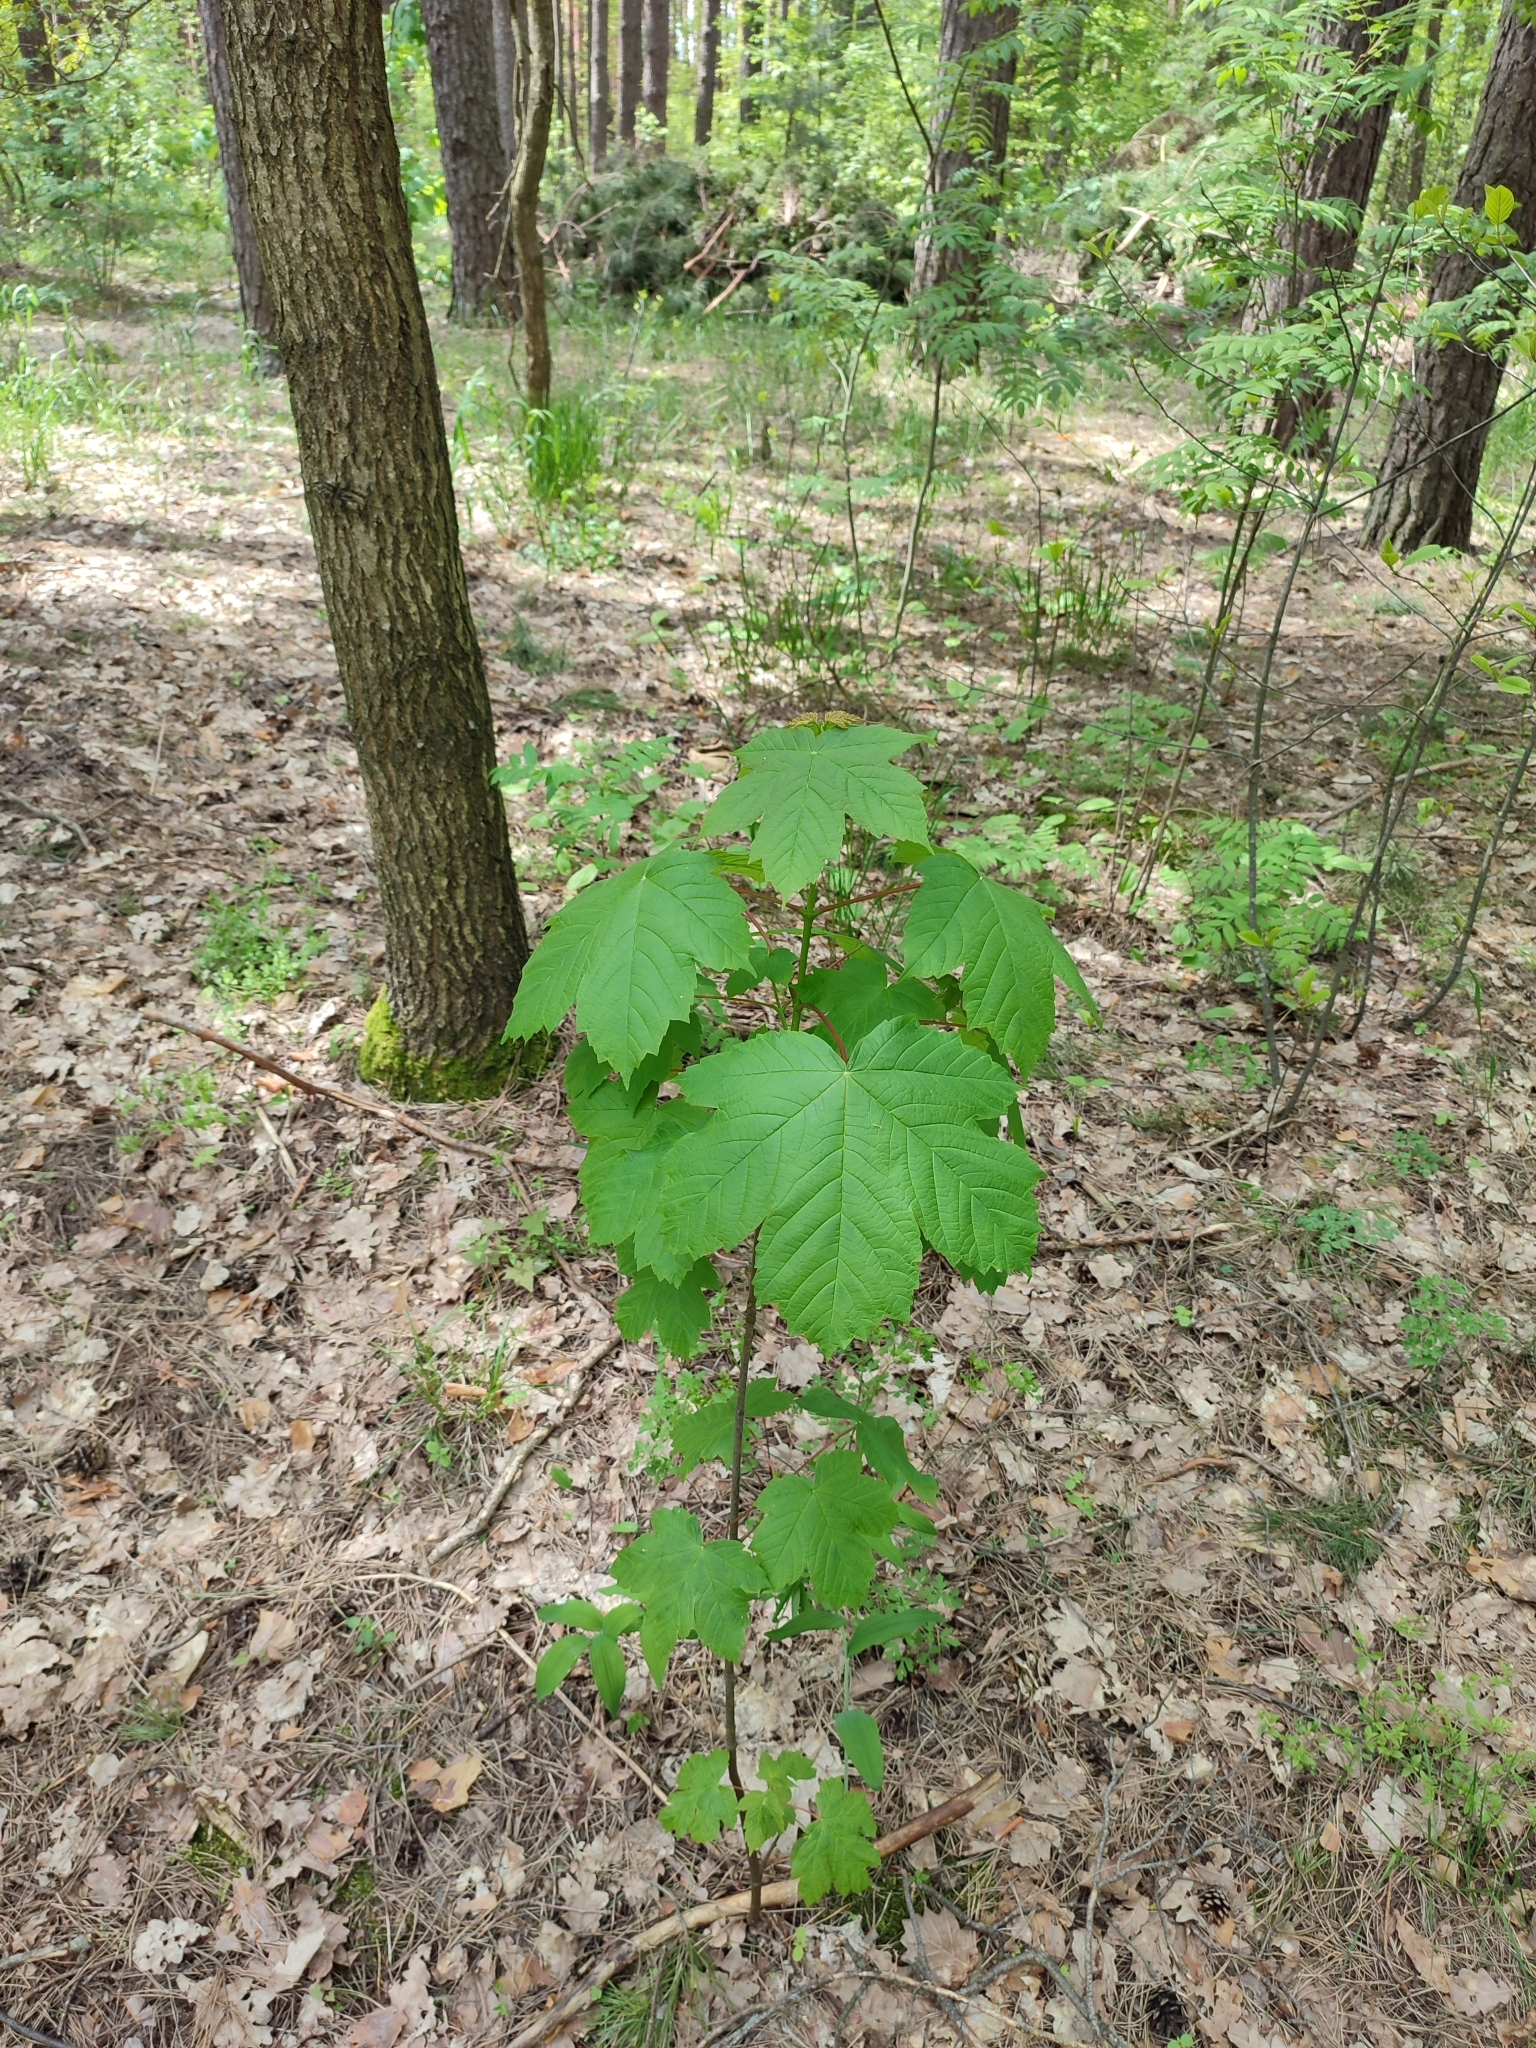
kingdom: Plantae
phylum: Tracheophyta
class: Magnoliopsida
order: Sapindales
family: Sapindaceae
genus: Acer
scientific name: Acer pseudoplatanus
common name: Sycamore
